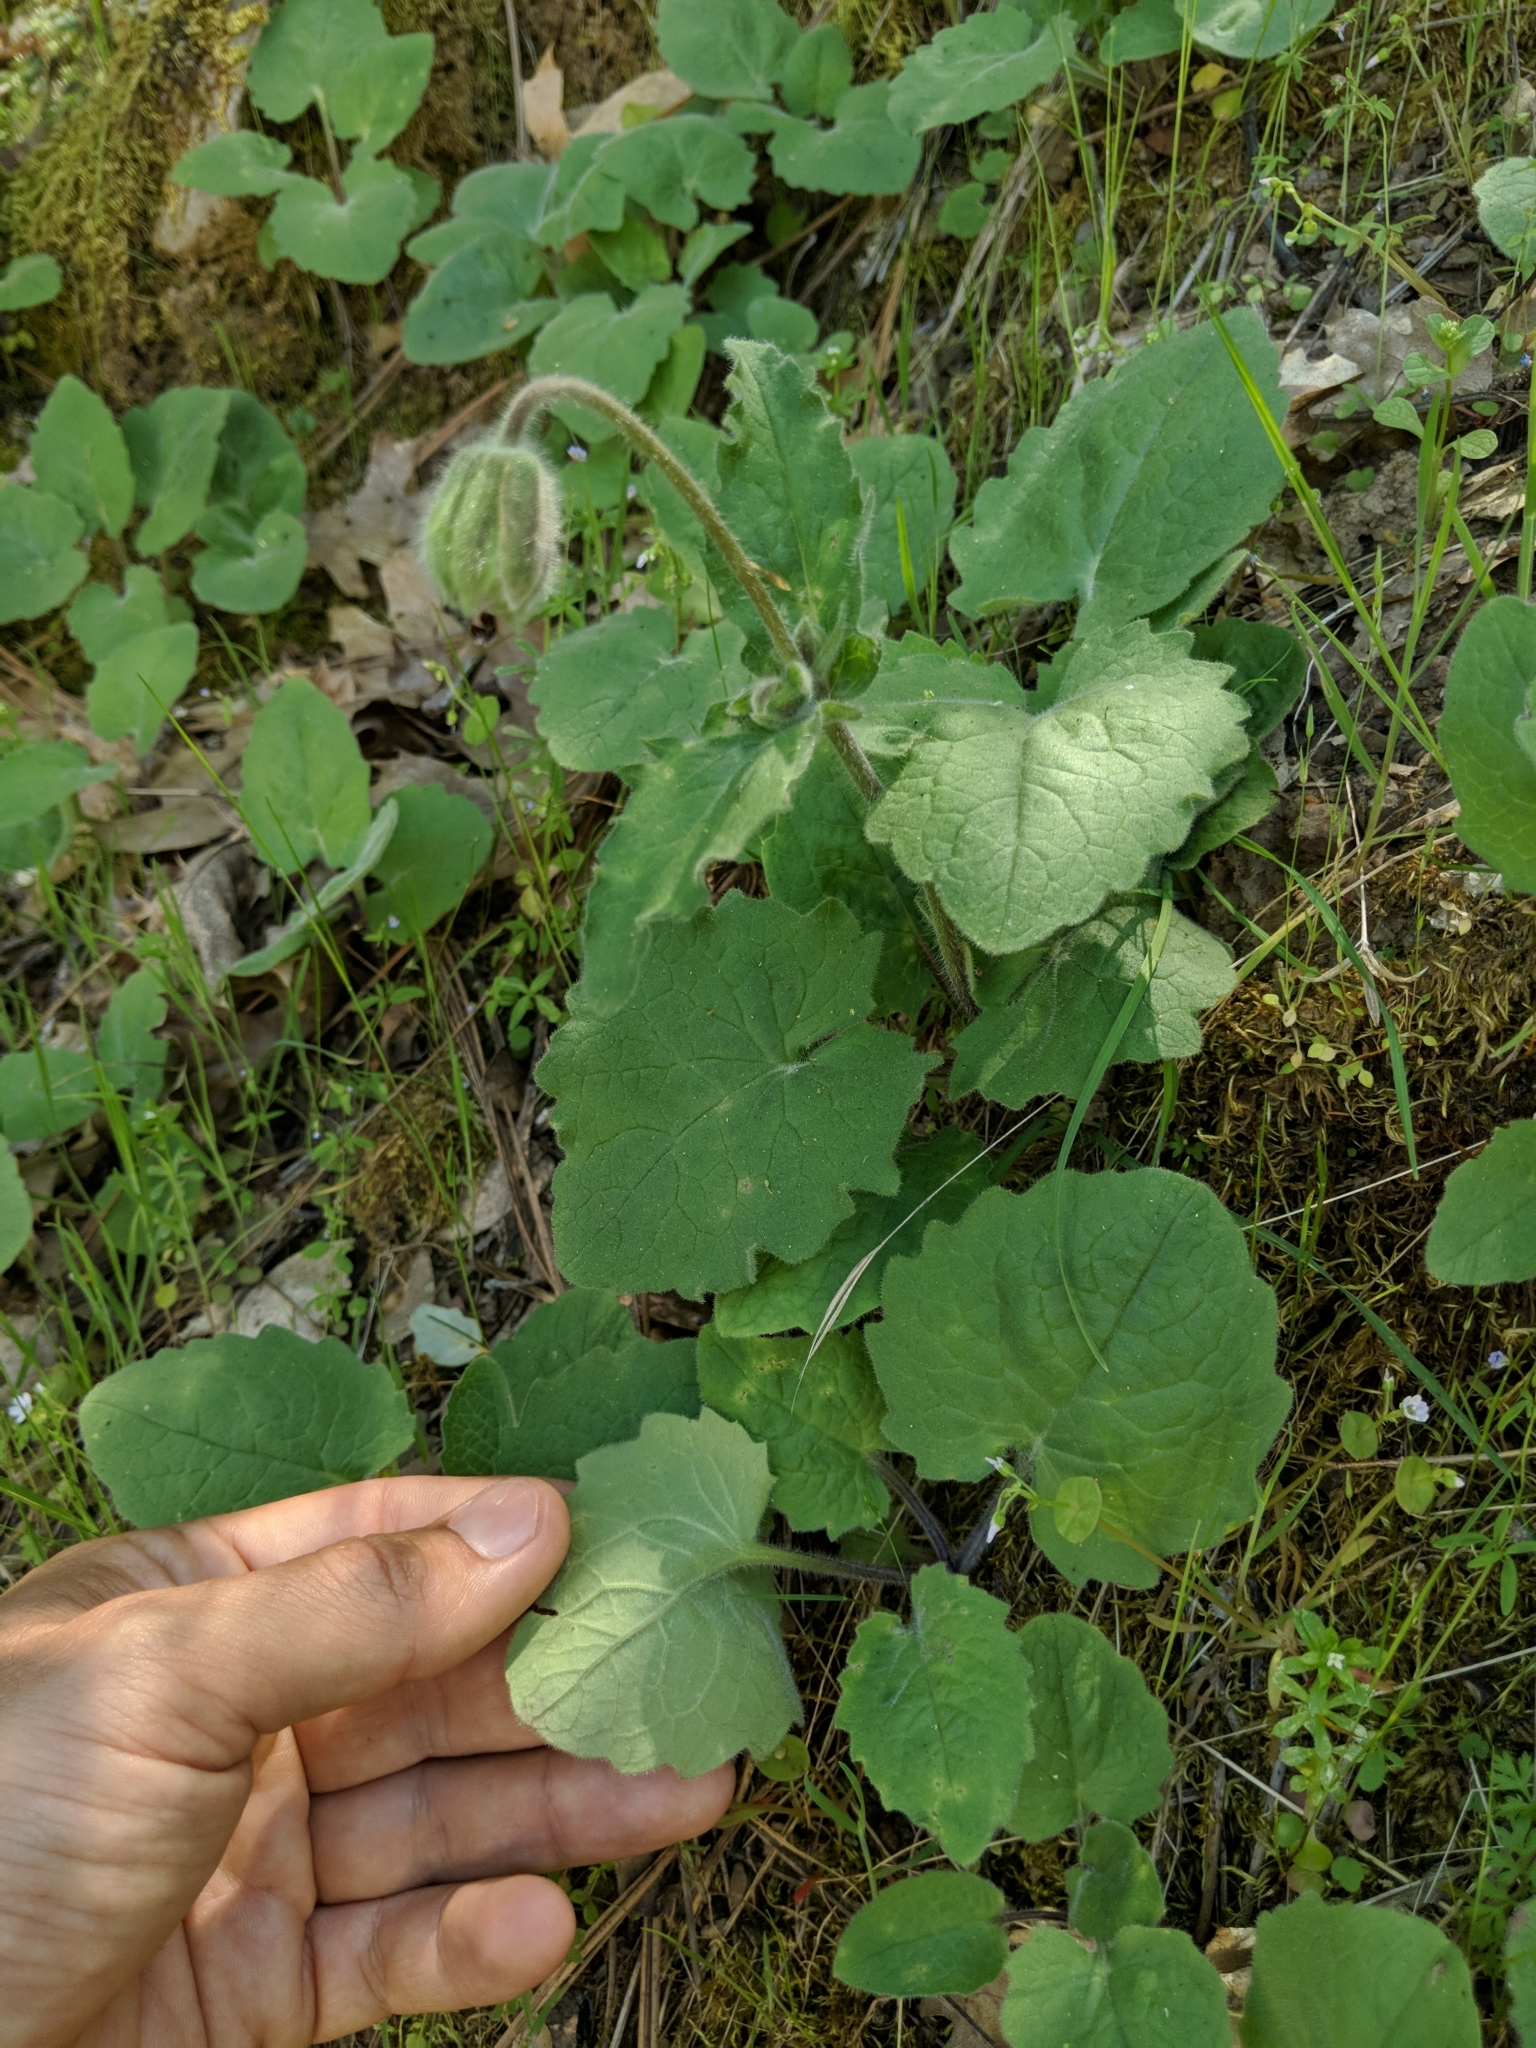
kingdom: Plantae
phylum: Tracheophyta
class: Magnoliopsida
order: Asterales
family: Asteraceae
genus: Arnica
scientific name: Arnica discoidea
